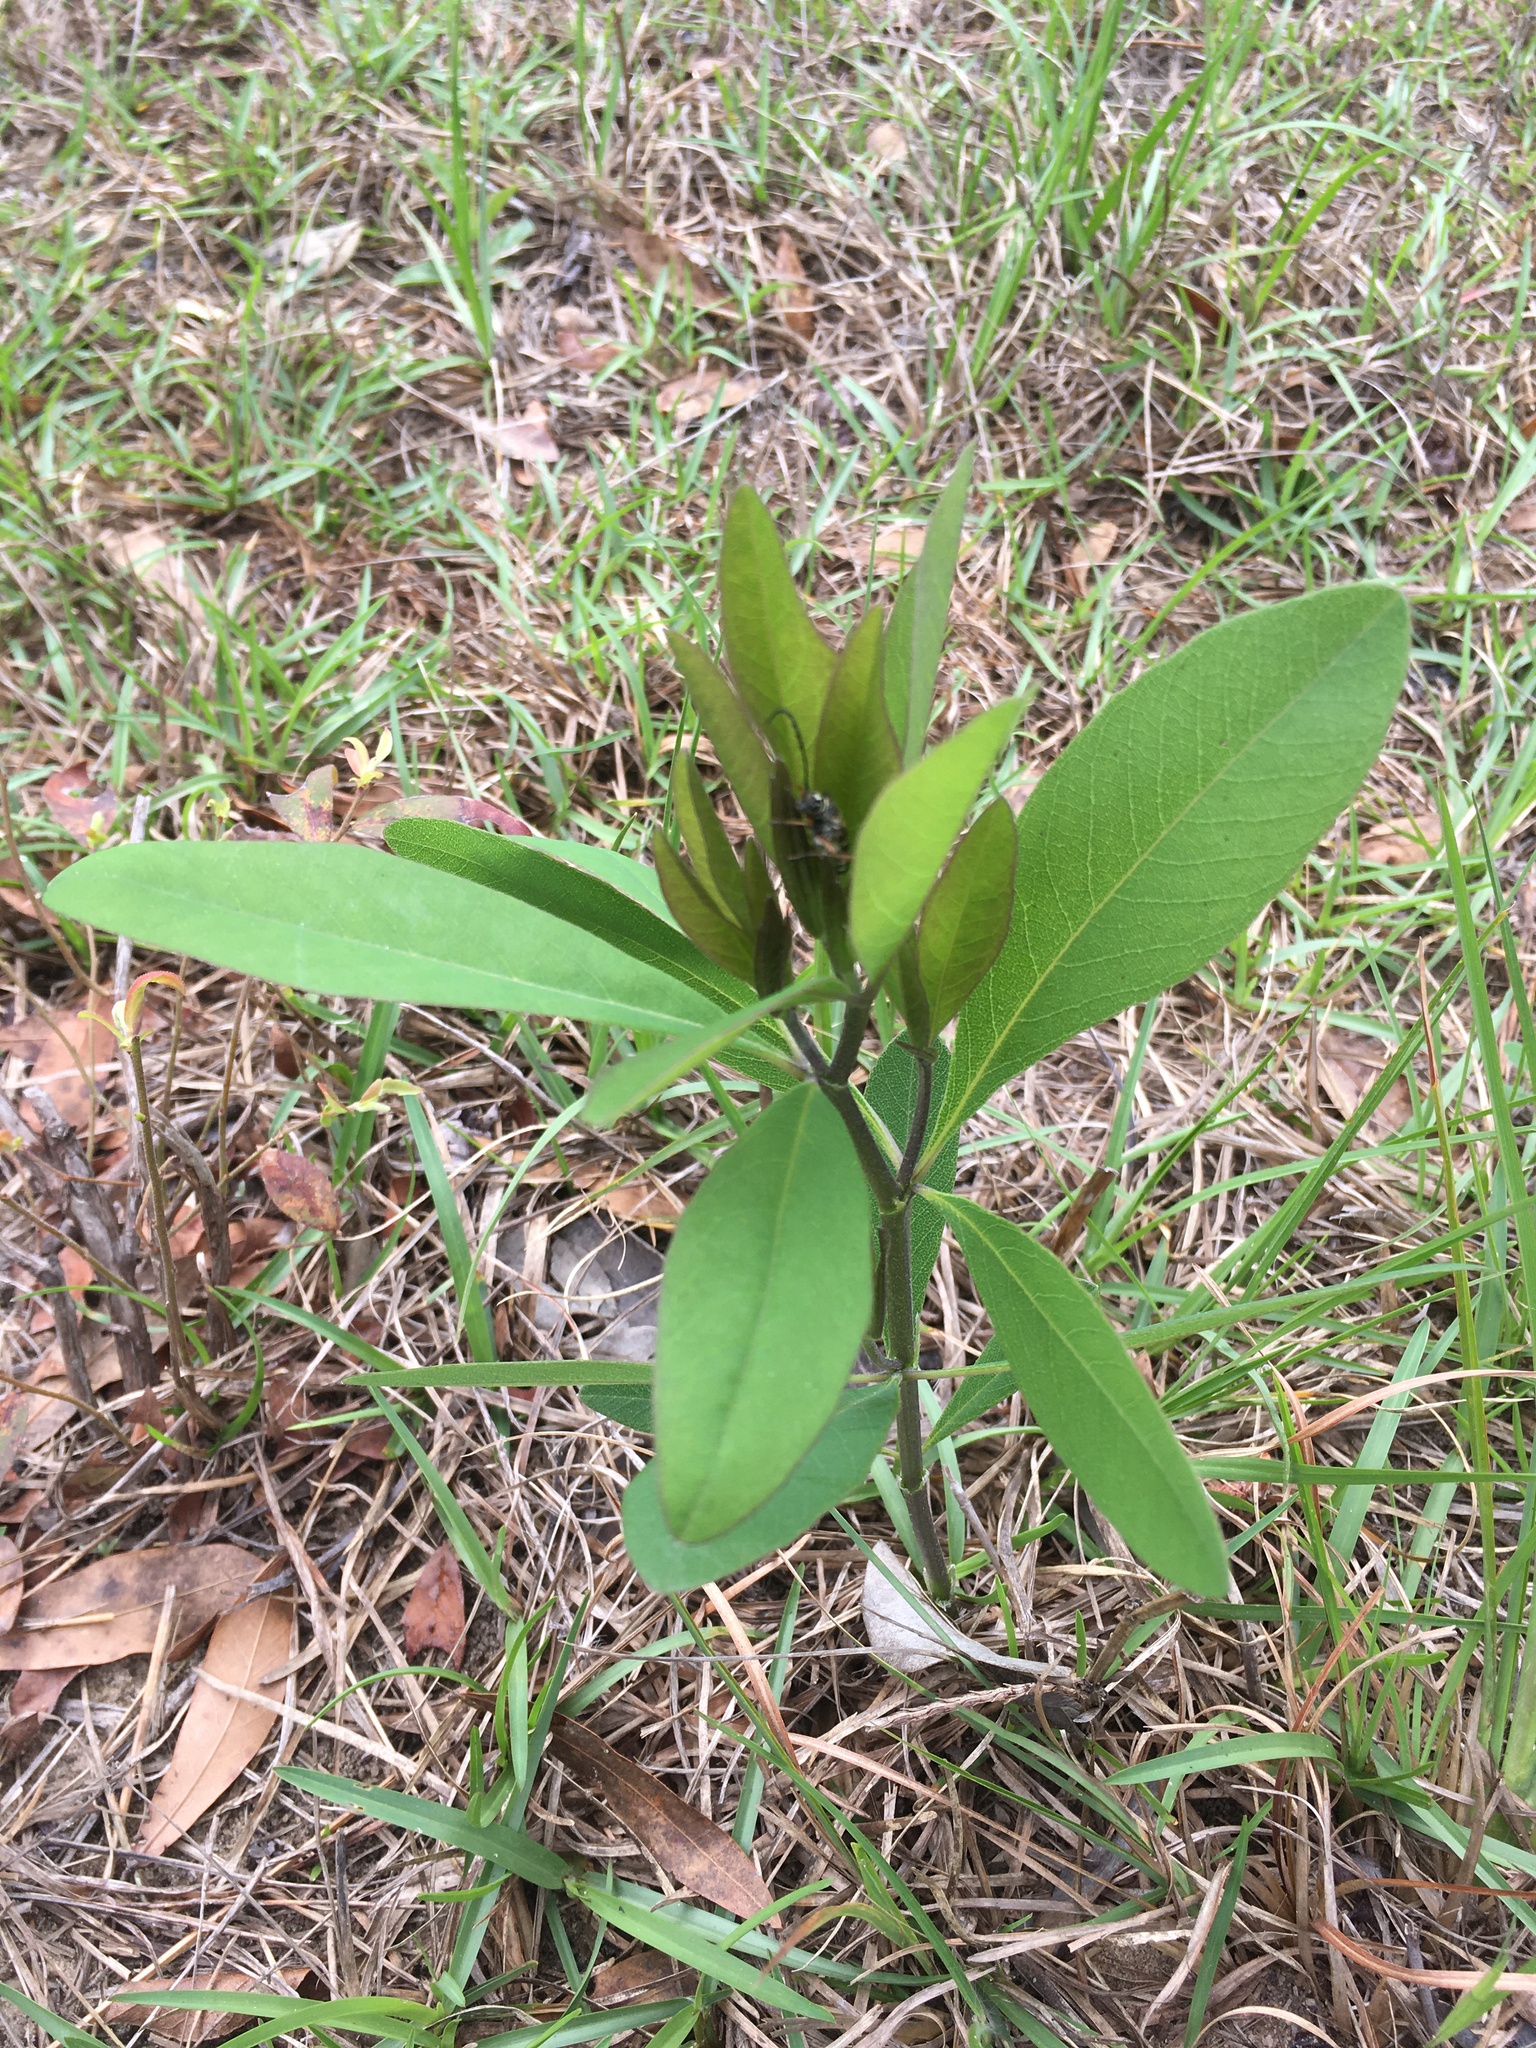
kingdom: Plantae
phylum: Tracheophyta
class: Magnoliopsida
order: Fabales
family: Fabaceae
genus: Baptisia
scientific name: Baptisia lanceolata
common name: Gopherweed
